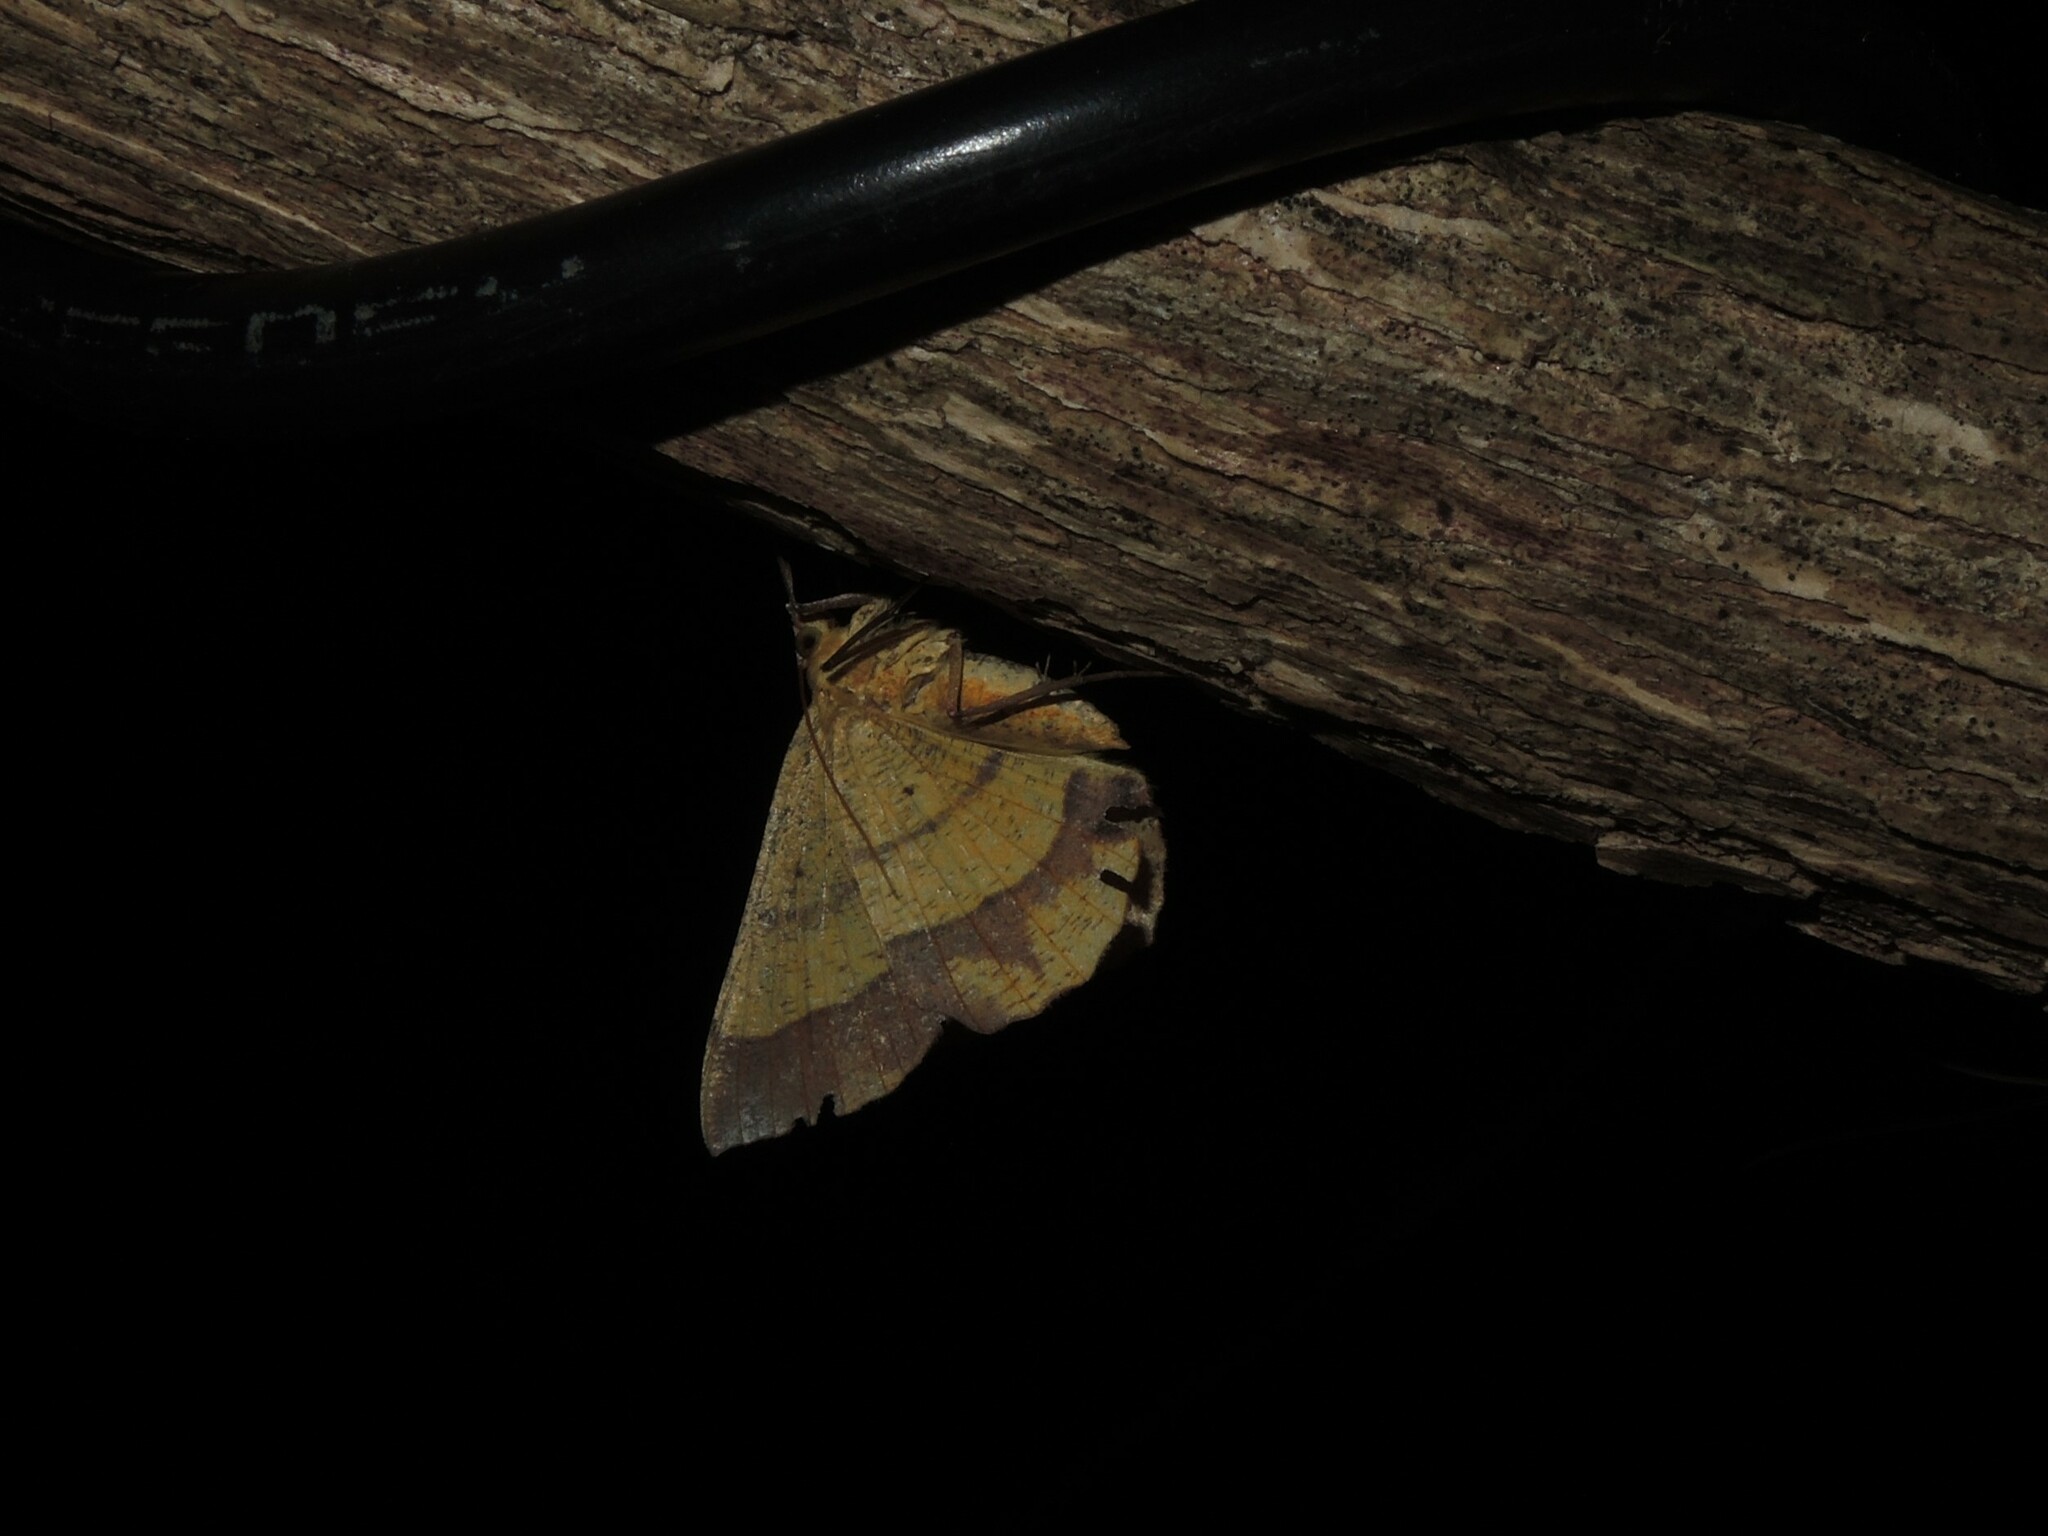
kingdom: Animalia
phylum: Arthropoda
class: Insecta
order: Lepidoptera
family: Geometridae
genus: Hyperythra
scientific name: Hyperythra lutea
